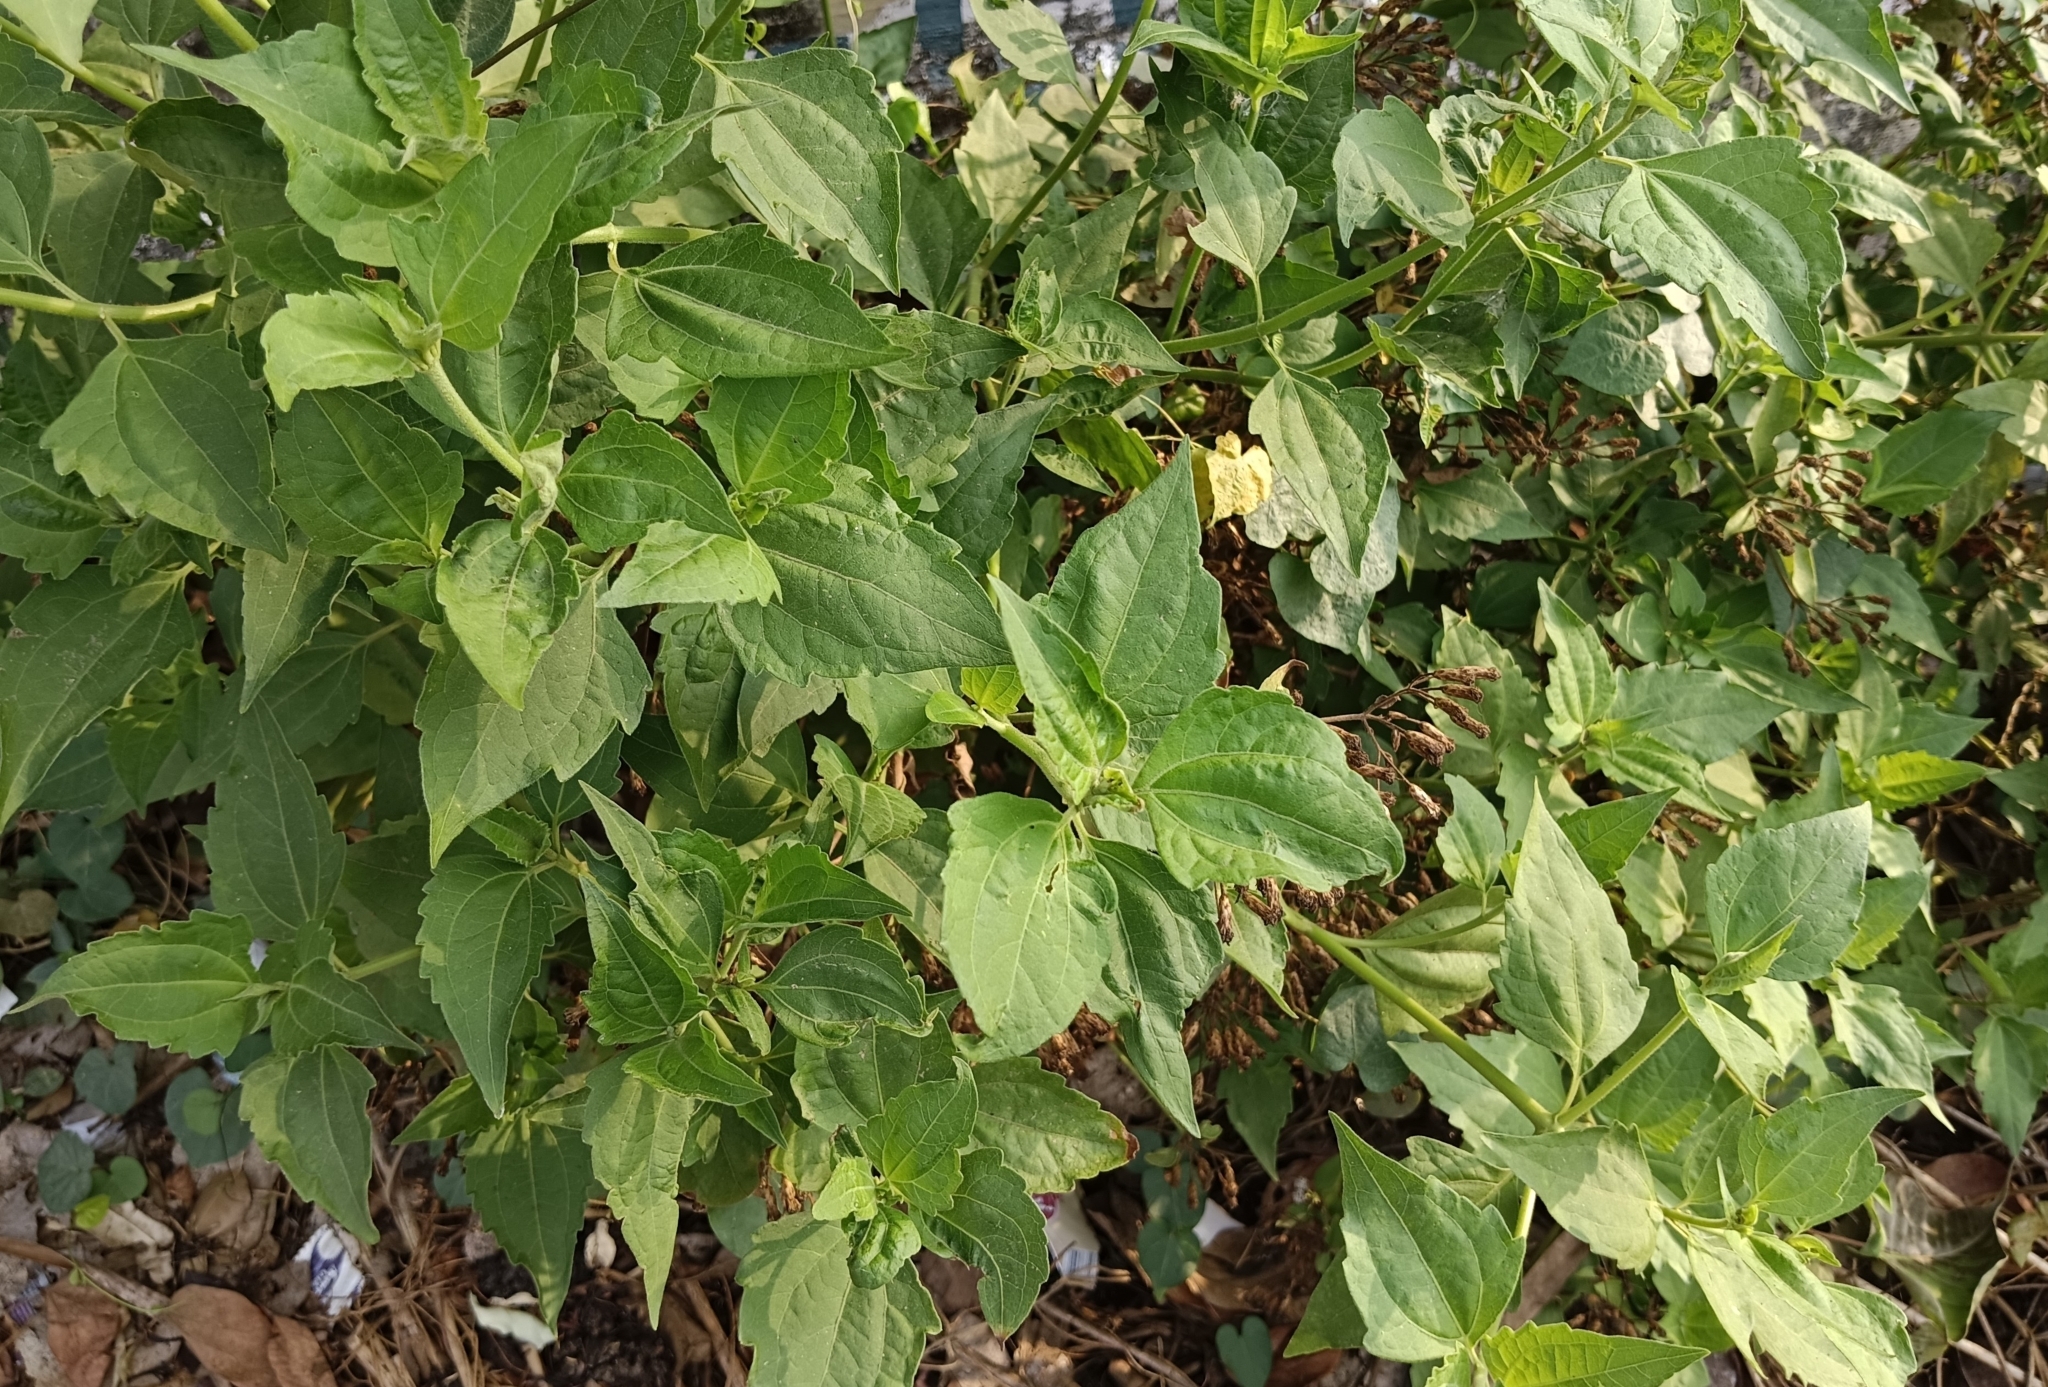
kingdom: Plantae
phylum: Tracheophyta
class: Magnoliopsida
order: Asterales
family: Asteraceae
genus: Chromolaena
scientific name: Chromolaena odorata
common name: Siamweed
